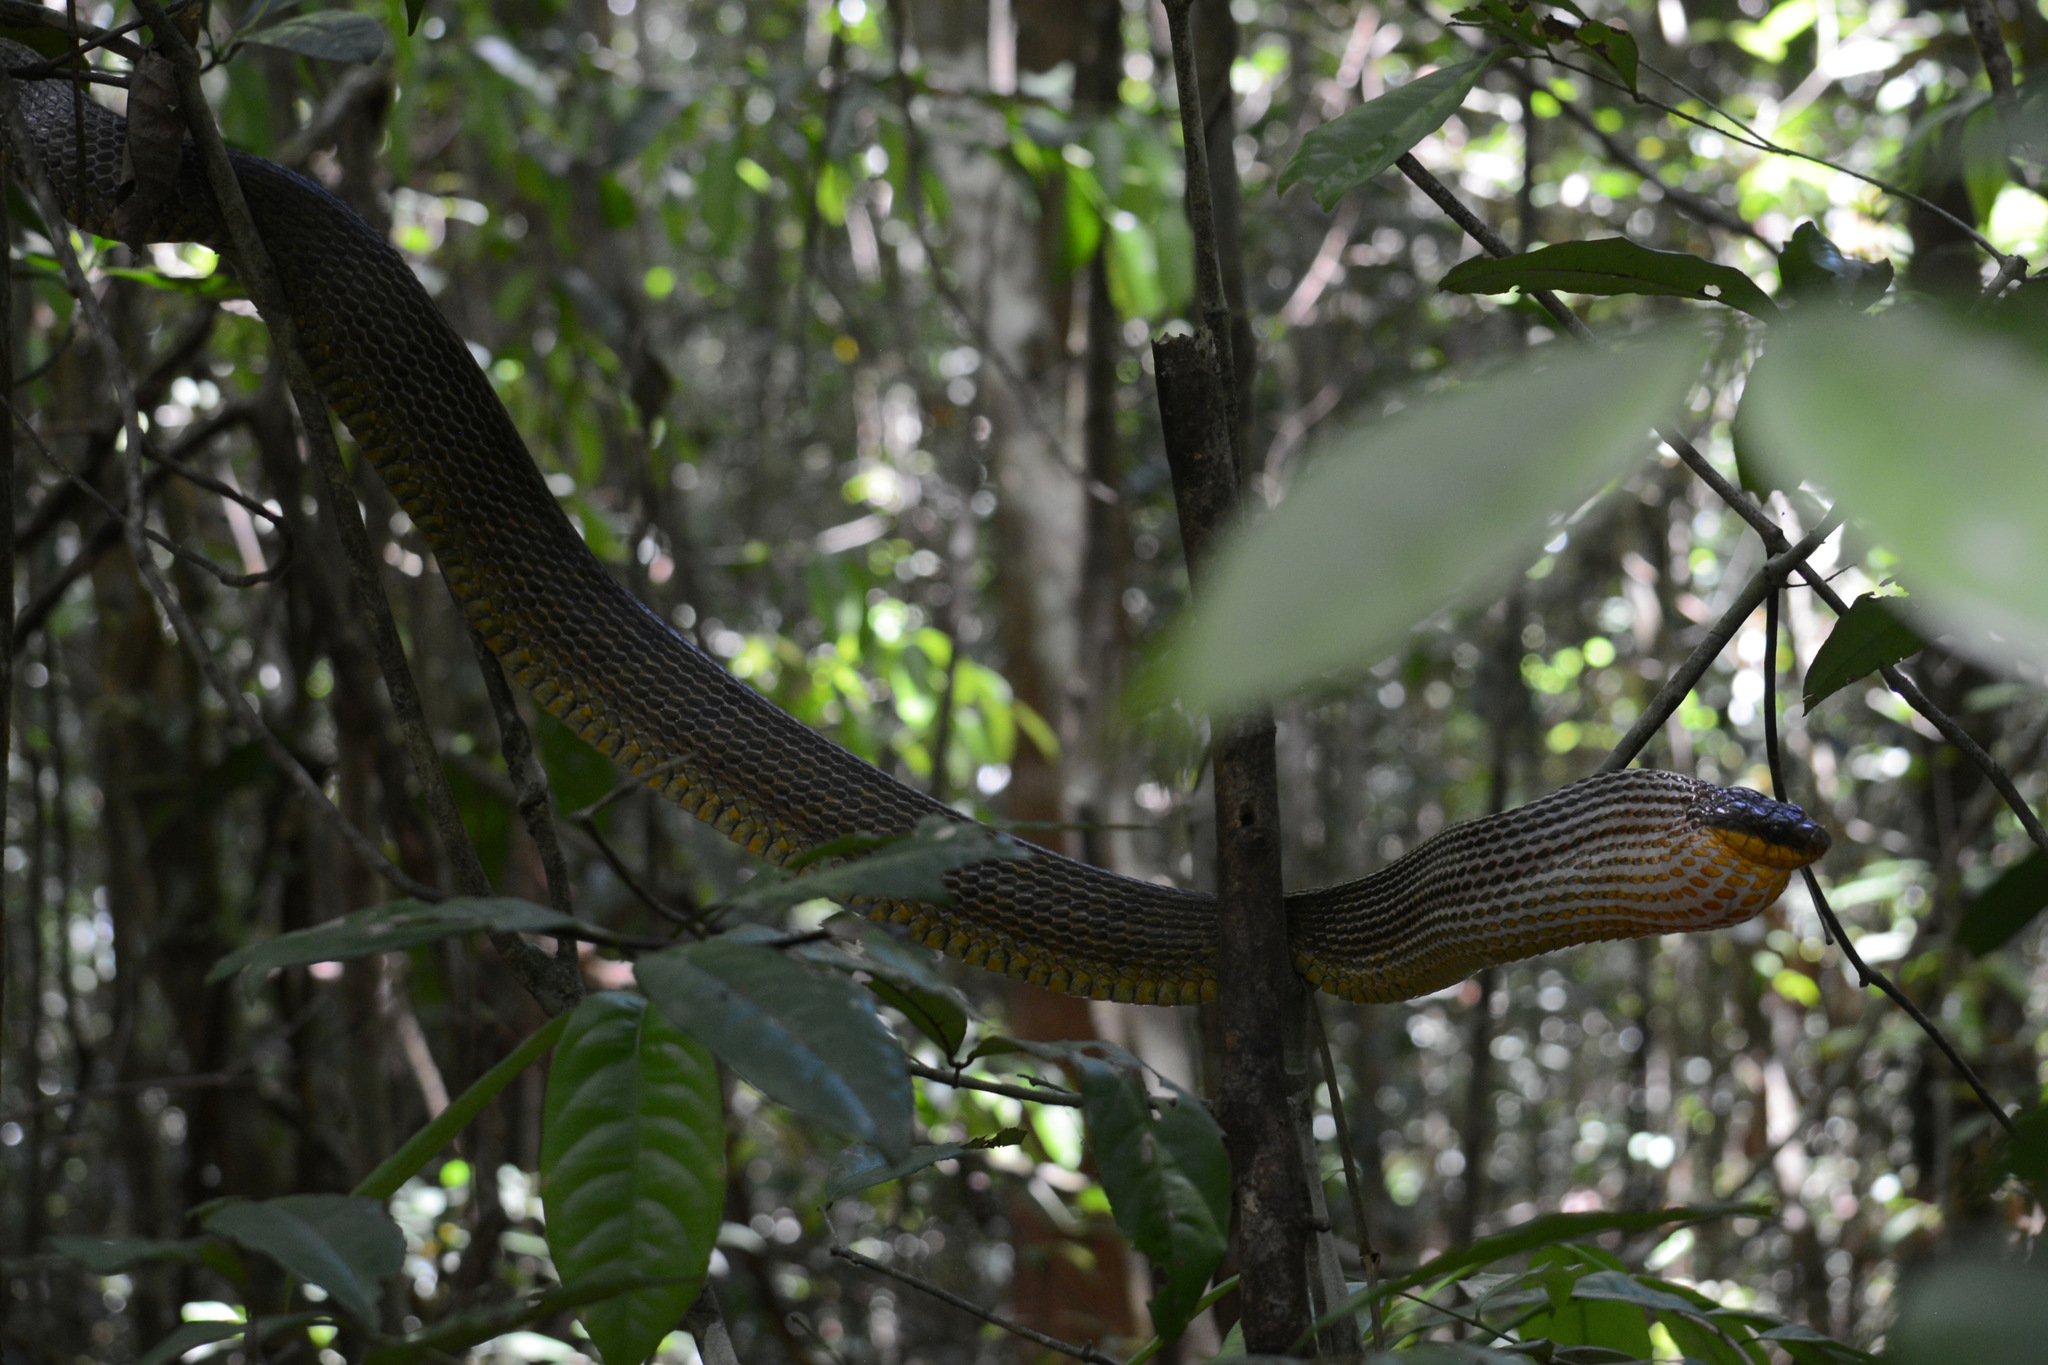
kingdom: Animalia
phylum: Chordata
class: Squamata
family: Colubridae
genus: Spilotes
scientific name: Spilotes sulphureus
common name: Amazon puffing snake
